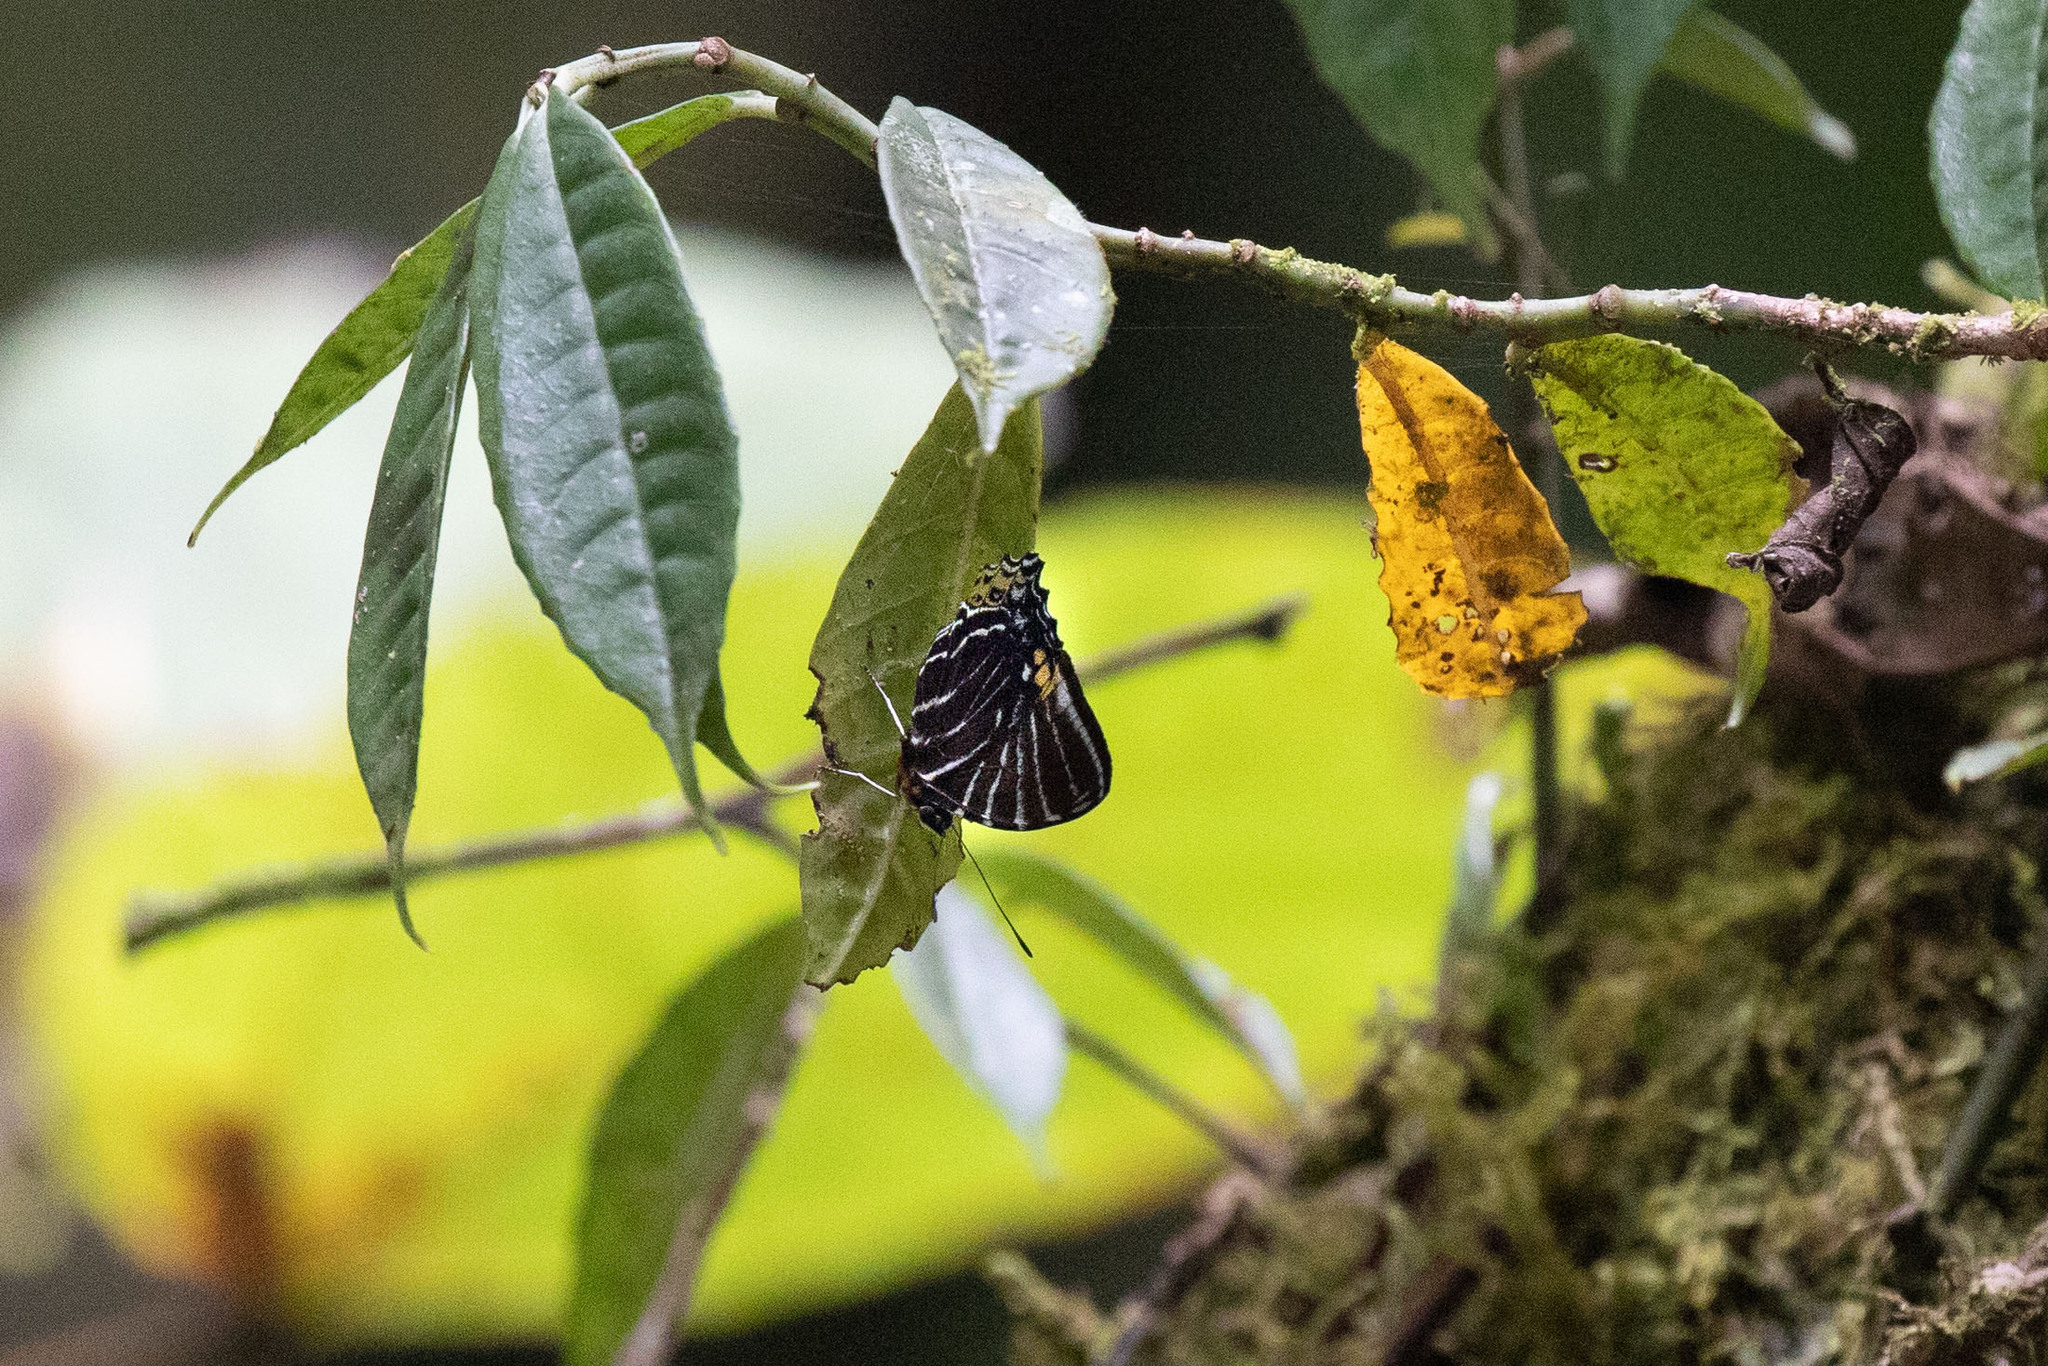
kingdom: Animalia
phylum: Arthropoda
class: Insecta
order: Lepidoptera
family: Nymphalidae
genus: Mynes
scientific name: Mynes
